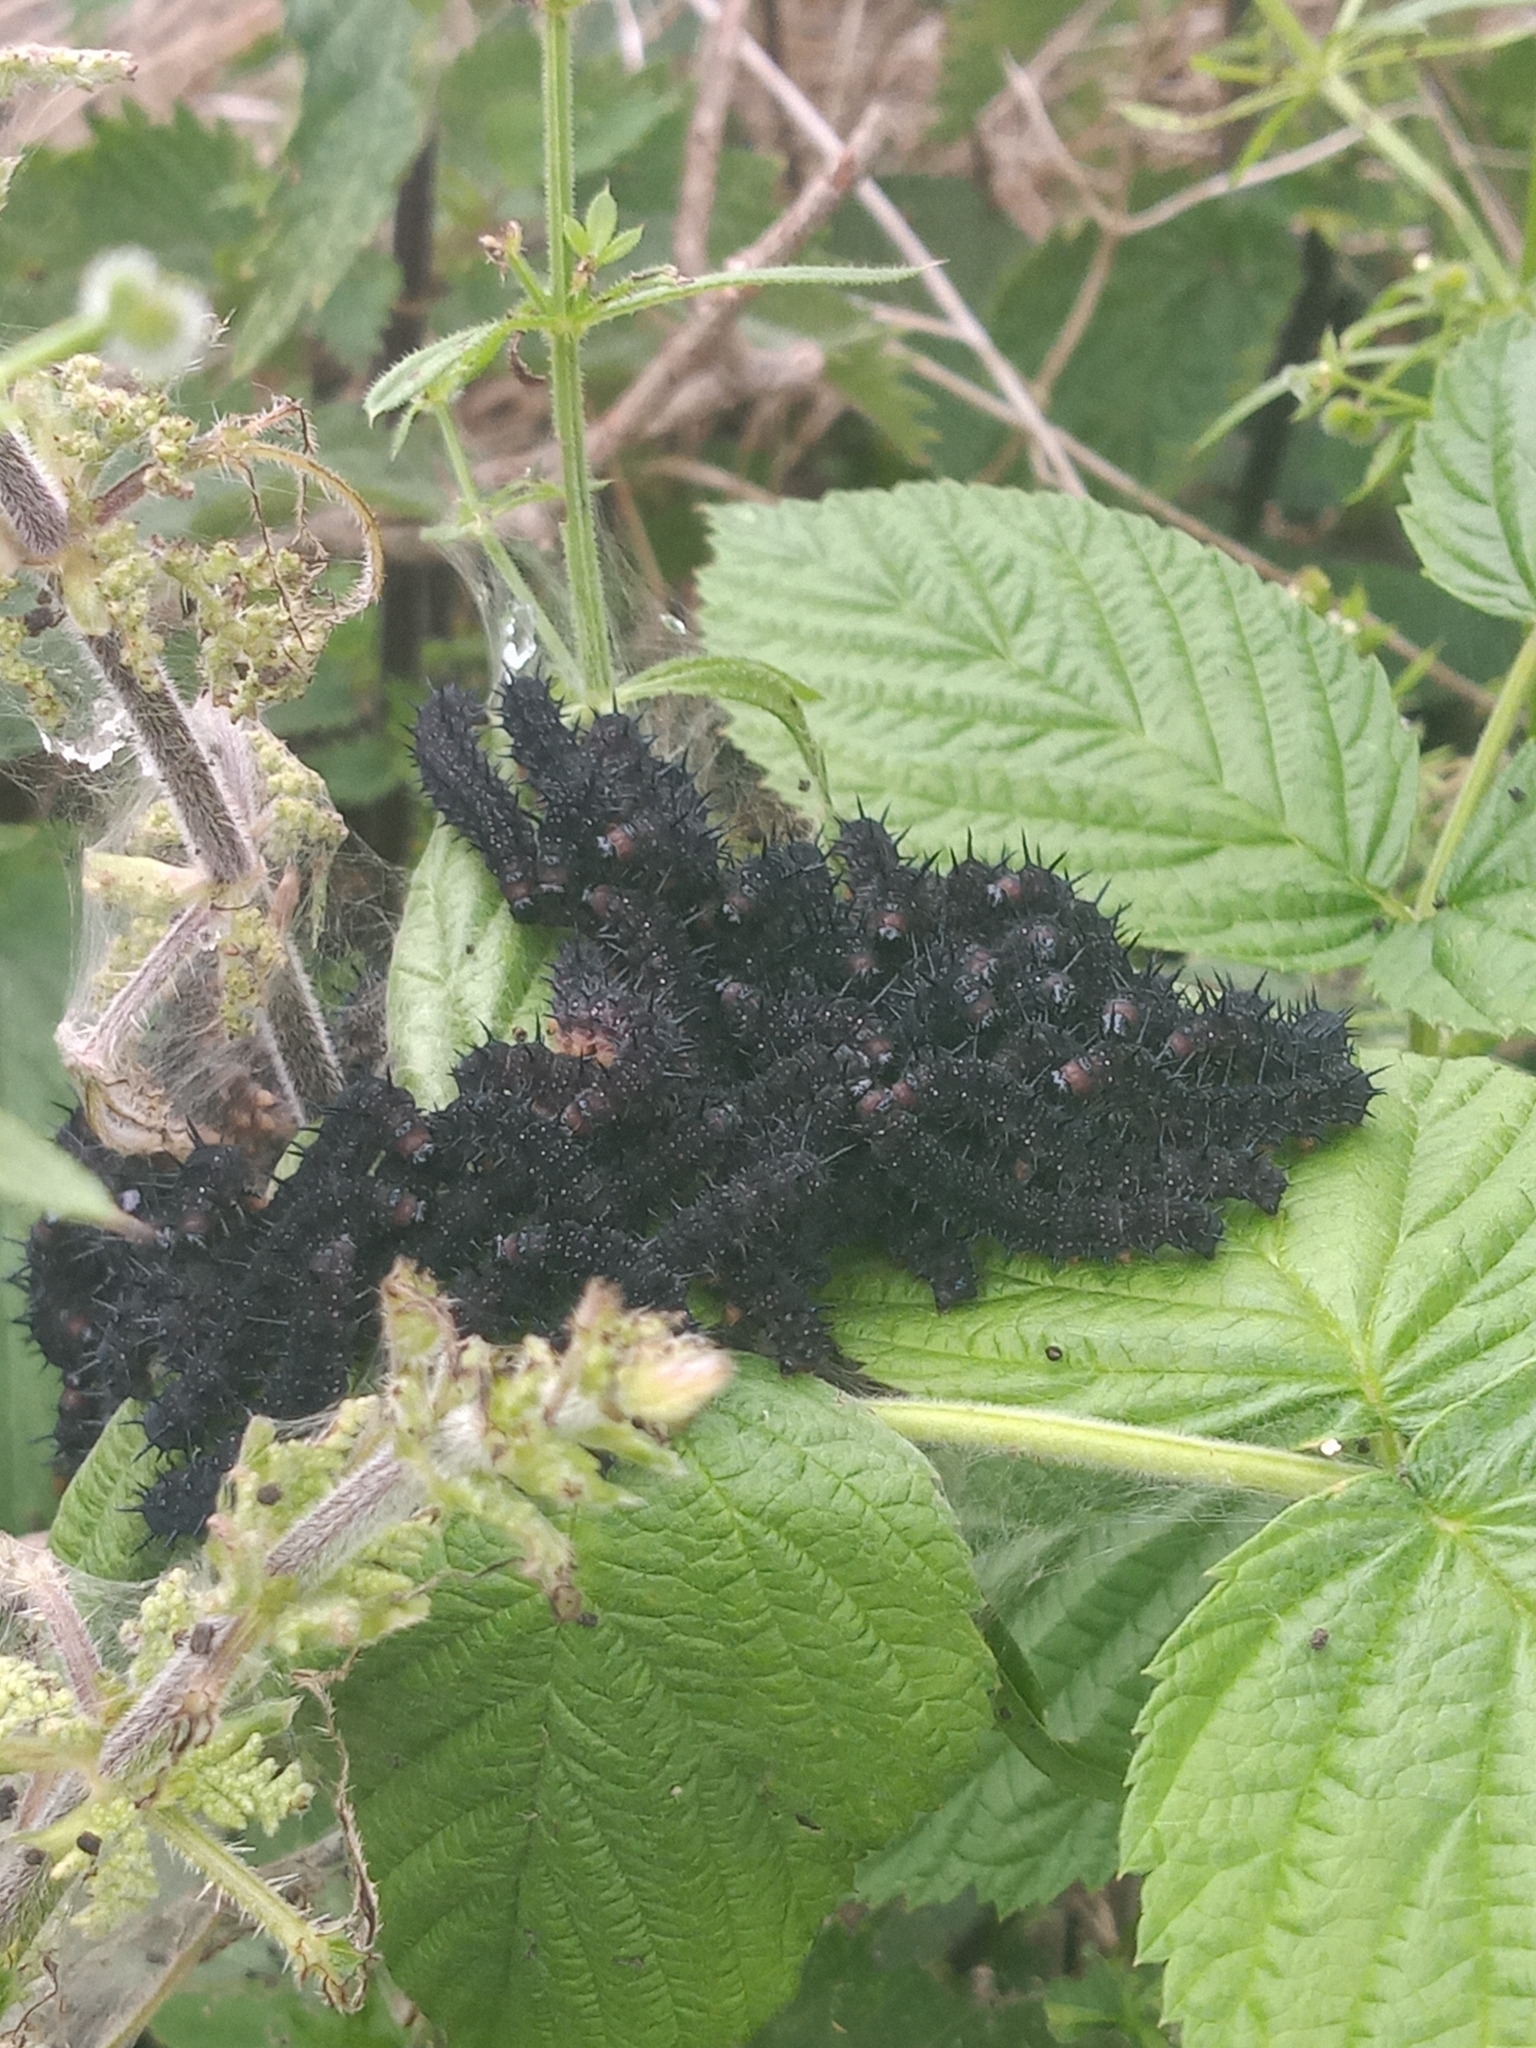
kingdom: Animalia
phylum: Arthropoda
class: Insecta
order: Lepidoptera
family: Nymphalidae
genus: Aglais
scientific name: Aglais io
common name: Peacock
